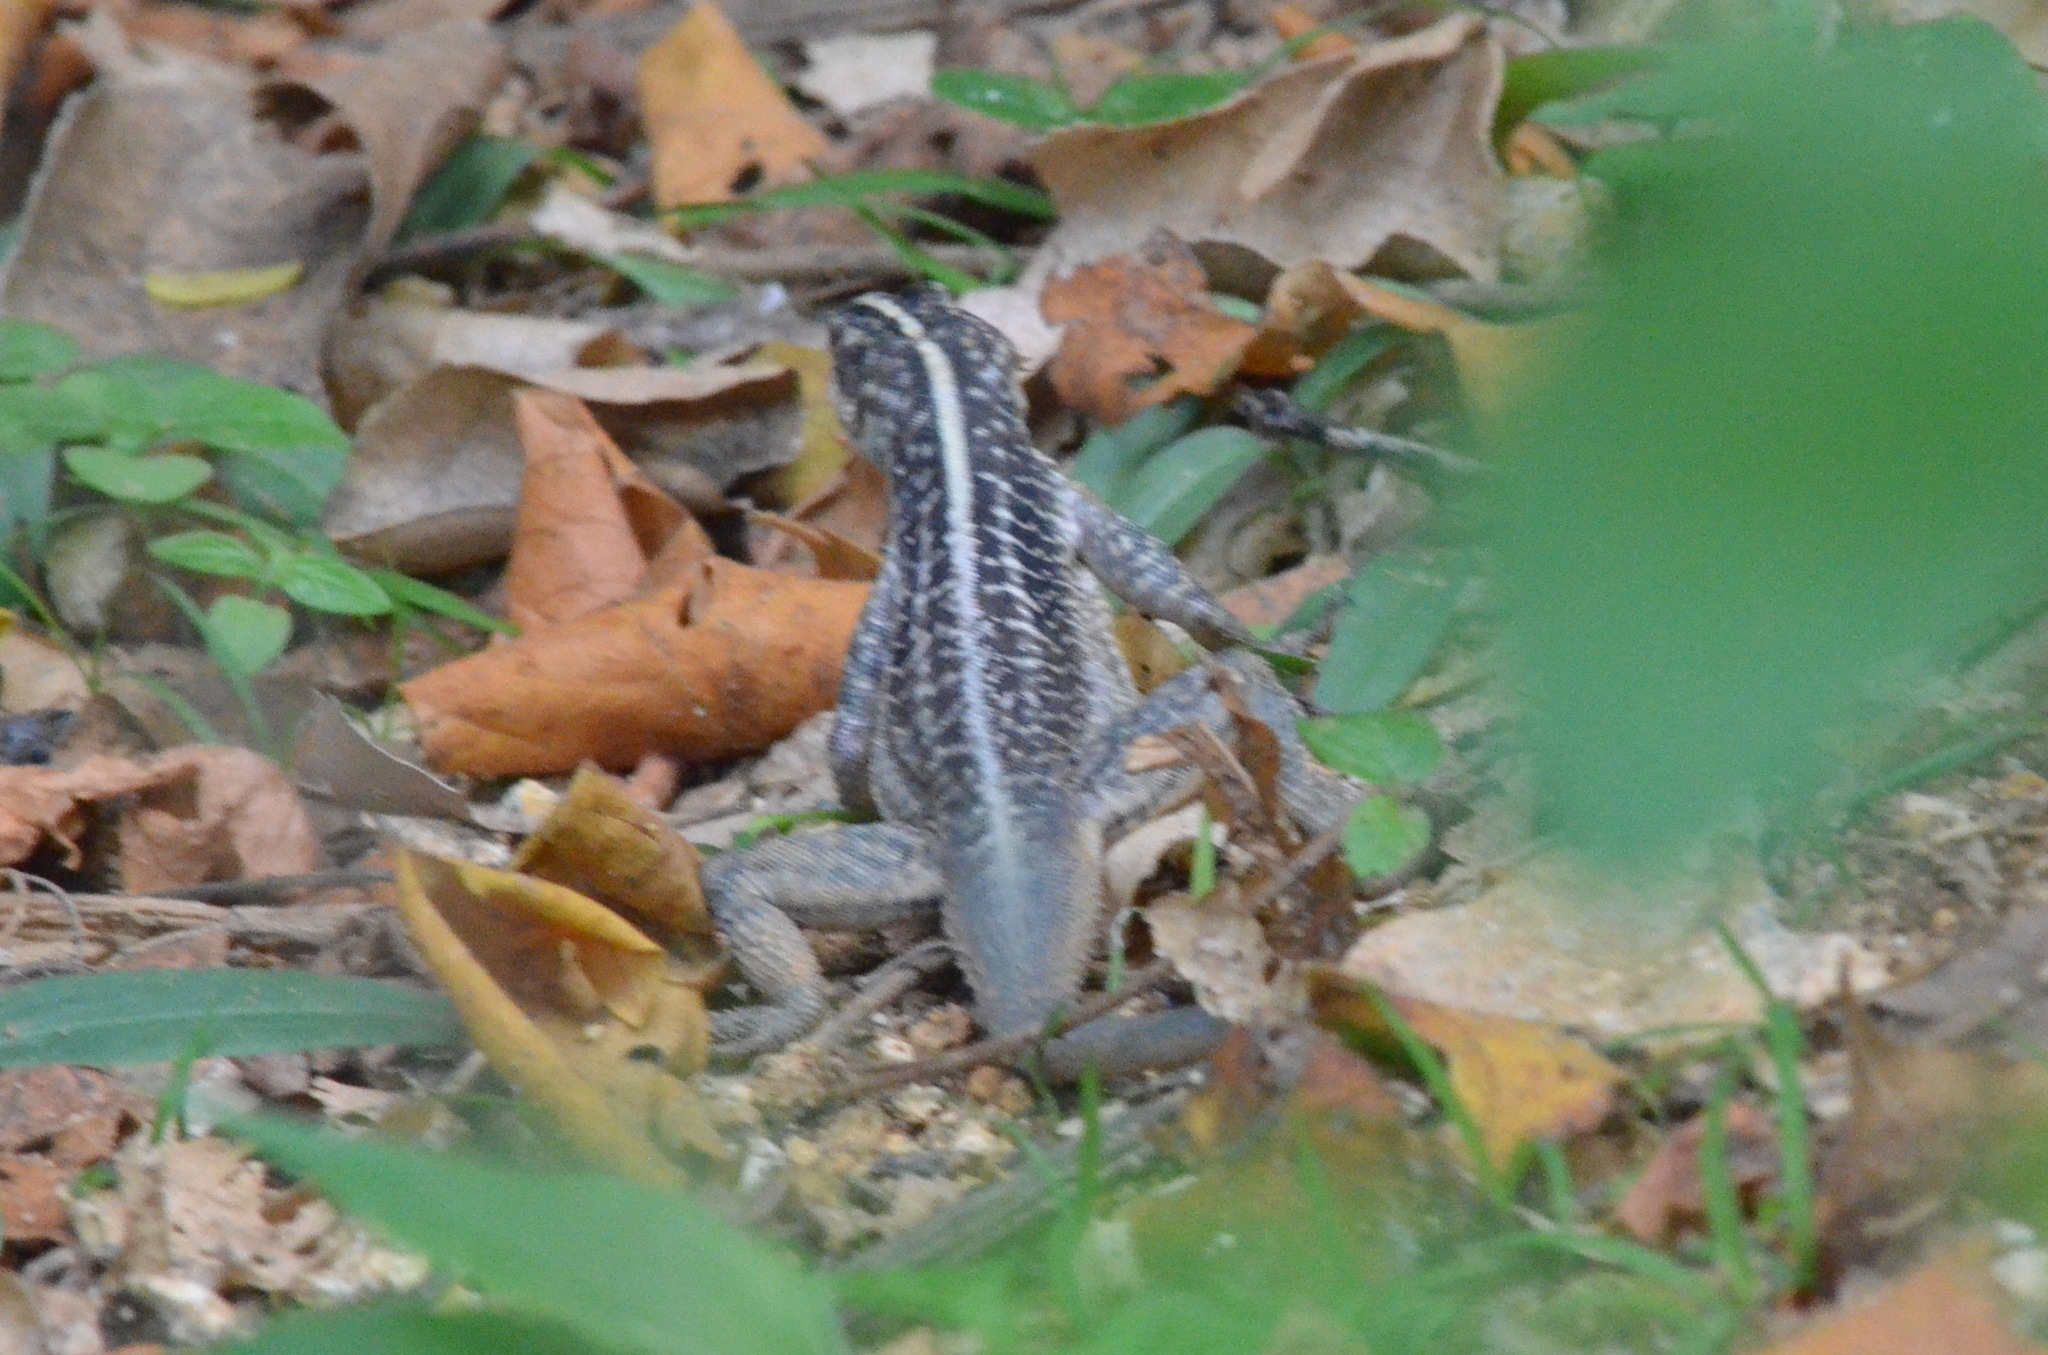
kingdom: Animalia
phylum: Chordata
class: Squamata
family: Tropiduridae
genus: Tropidurus
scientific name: Tropidurus semitaeniatus
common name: Striped lava lizard
